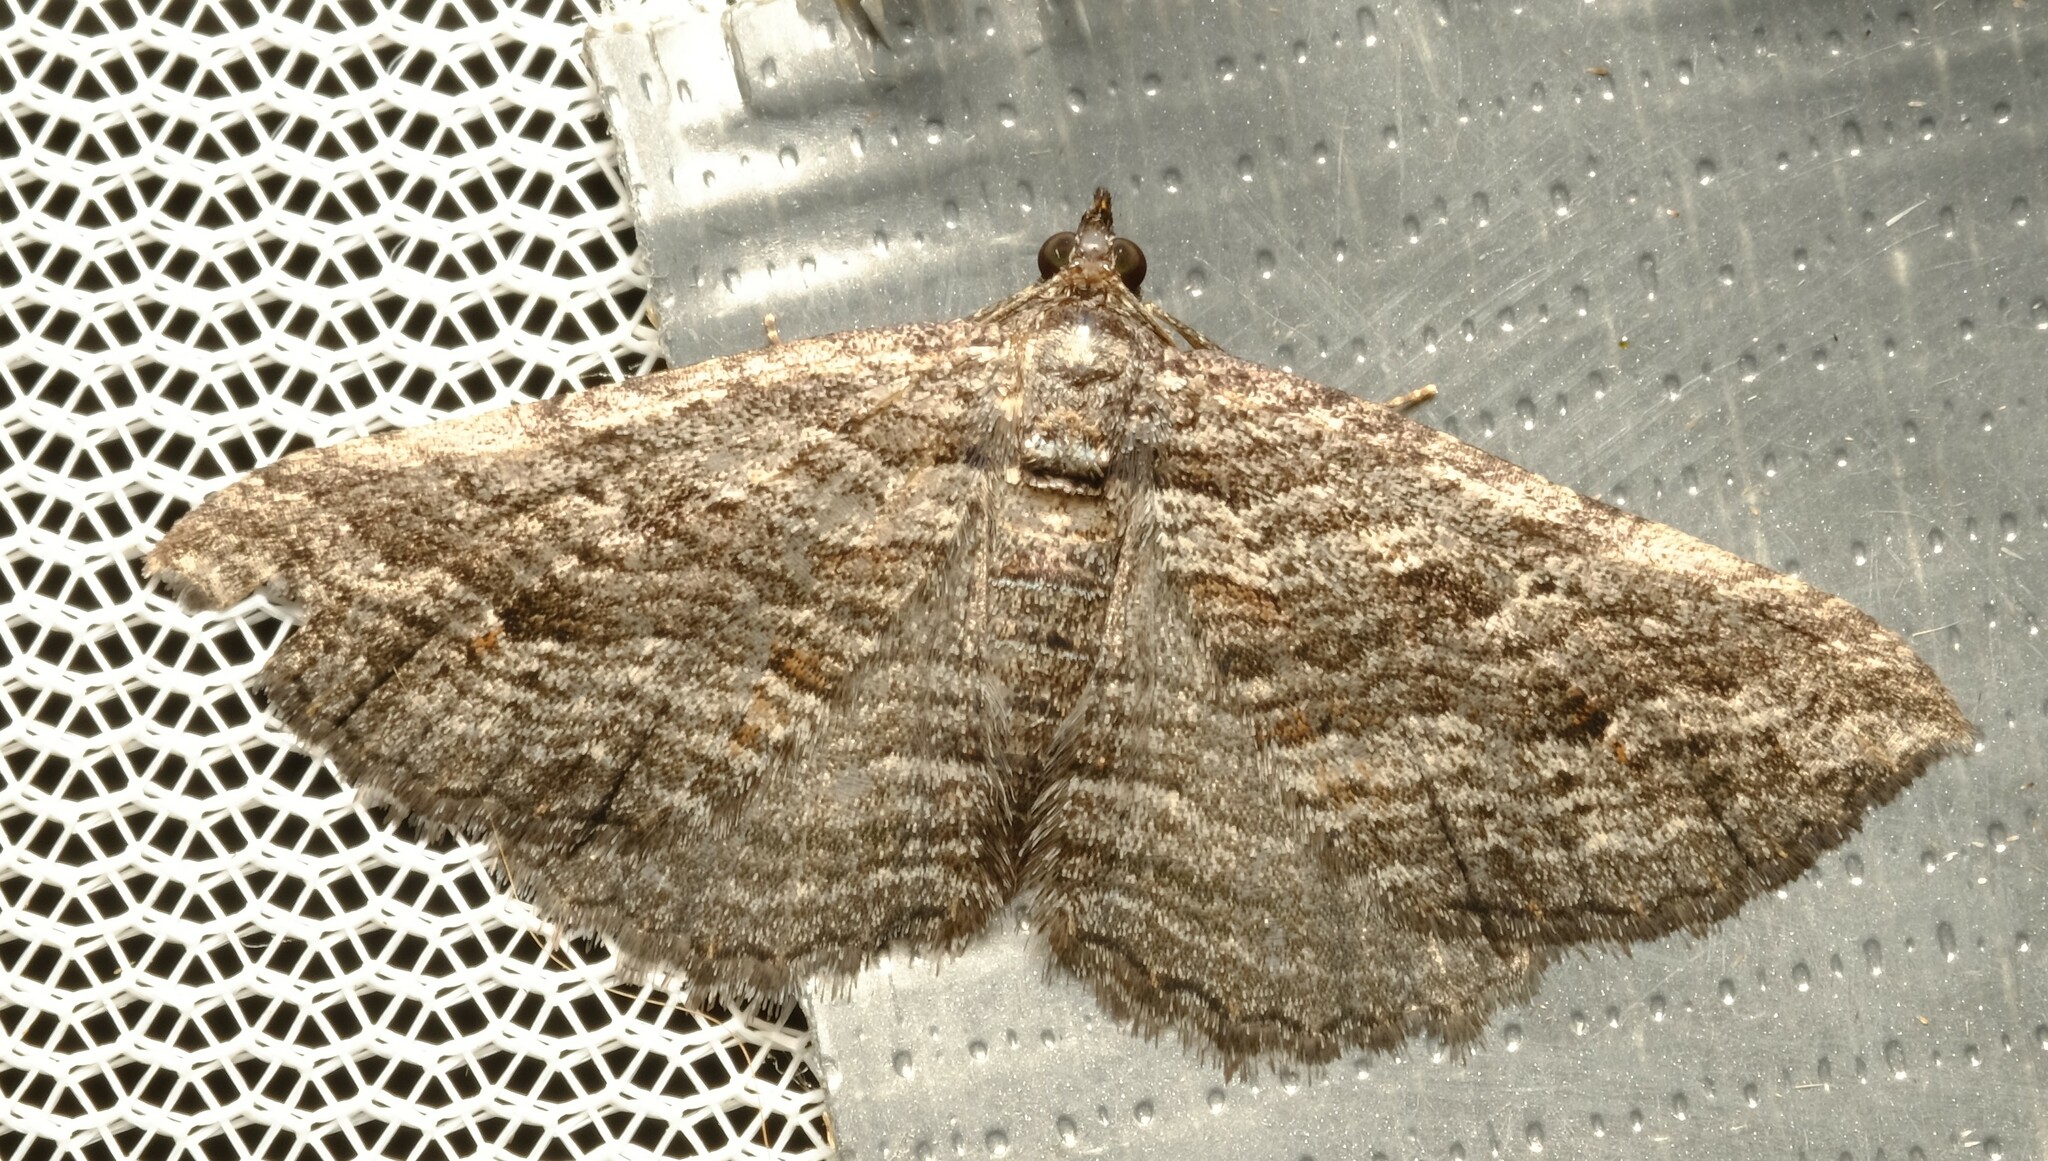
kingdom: Animalia
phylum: Arthropoda
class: Insecta
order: Lepidoptera
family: Geometridae
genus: Chrysolarentia
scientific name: Chrysolarentia severata
